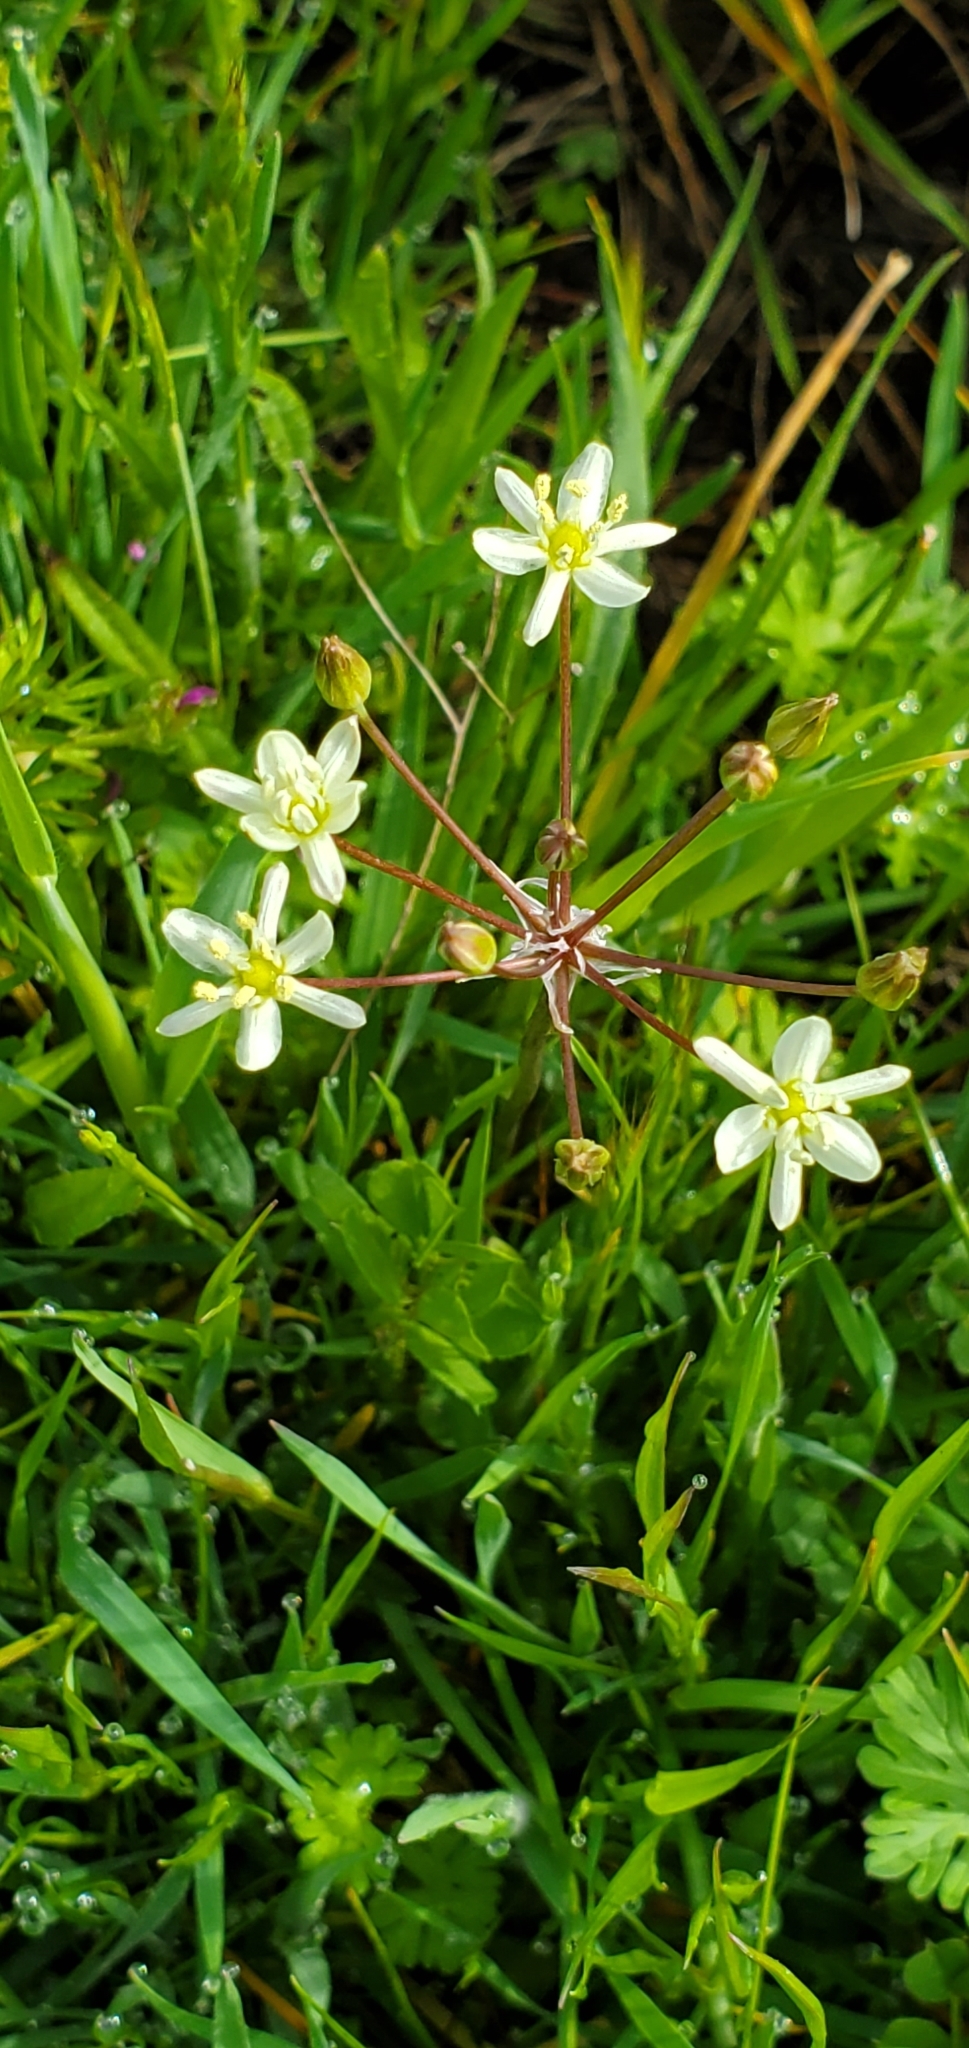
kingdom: Plantae
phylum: Tracheophyta
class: Liliopsida
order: Asparagales
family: Asparagaceae
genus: Muilla
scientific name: Muilla maritima
